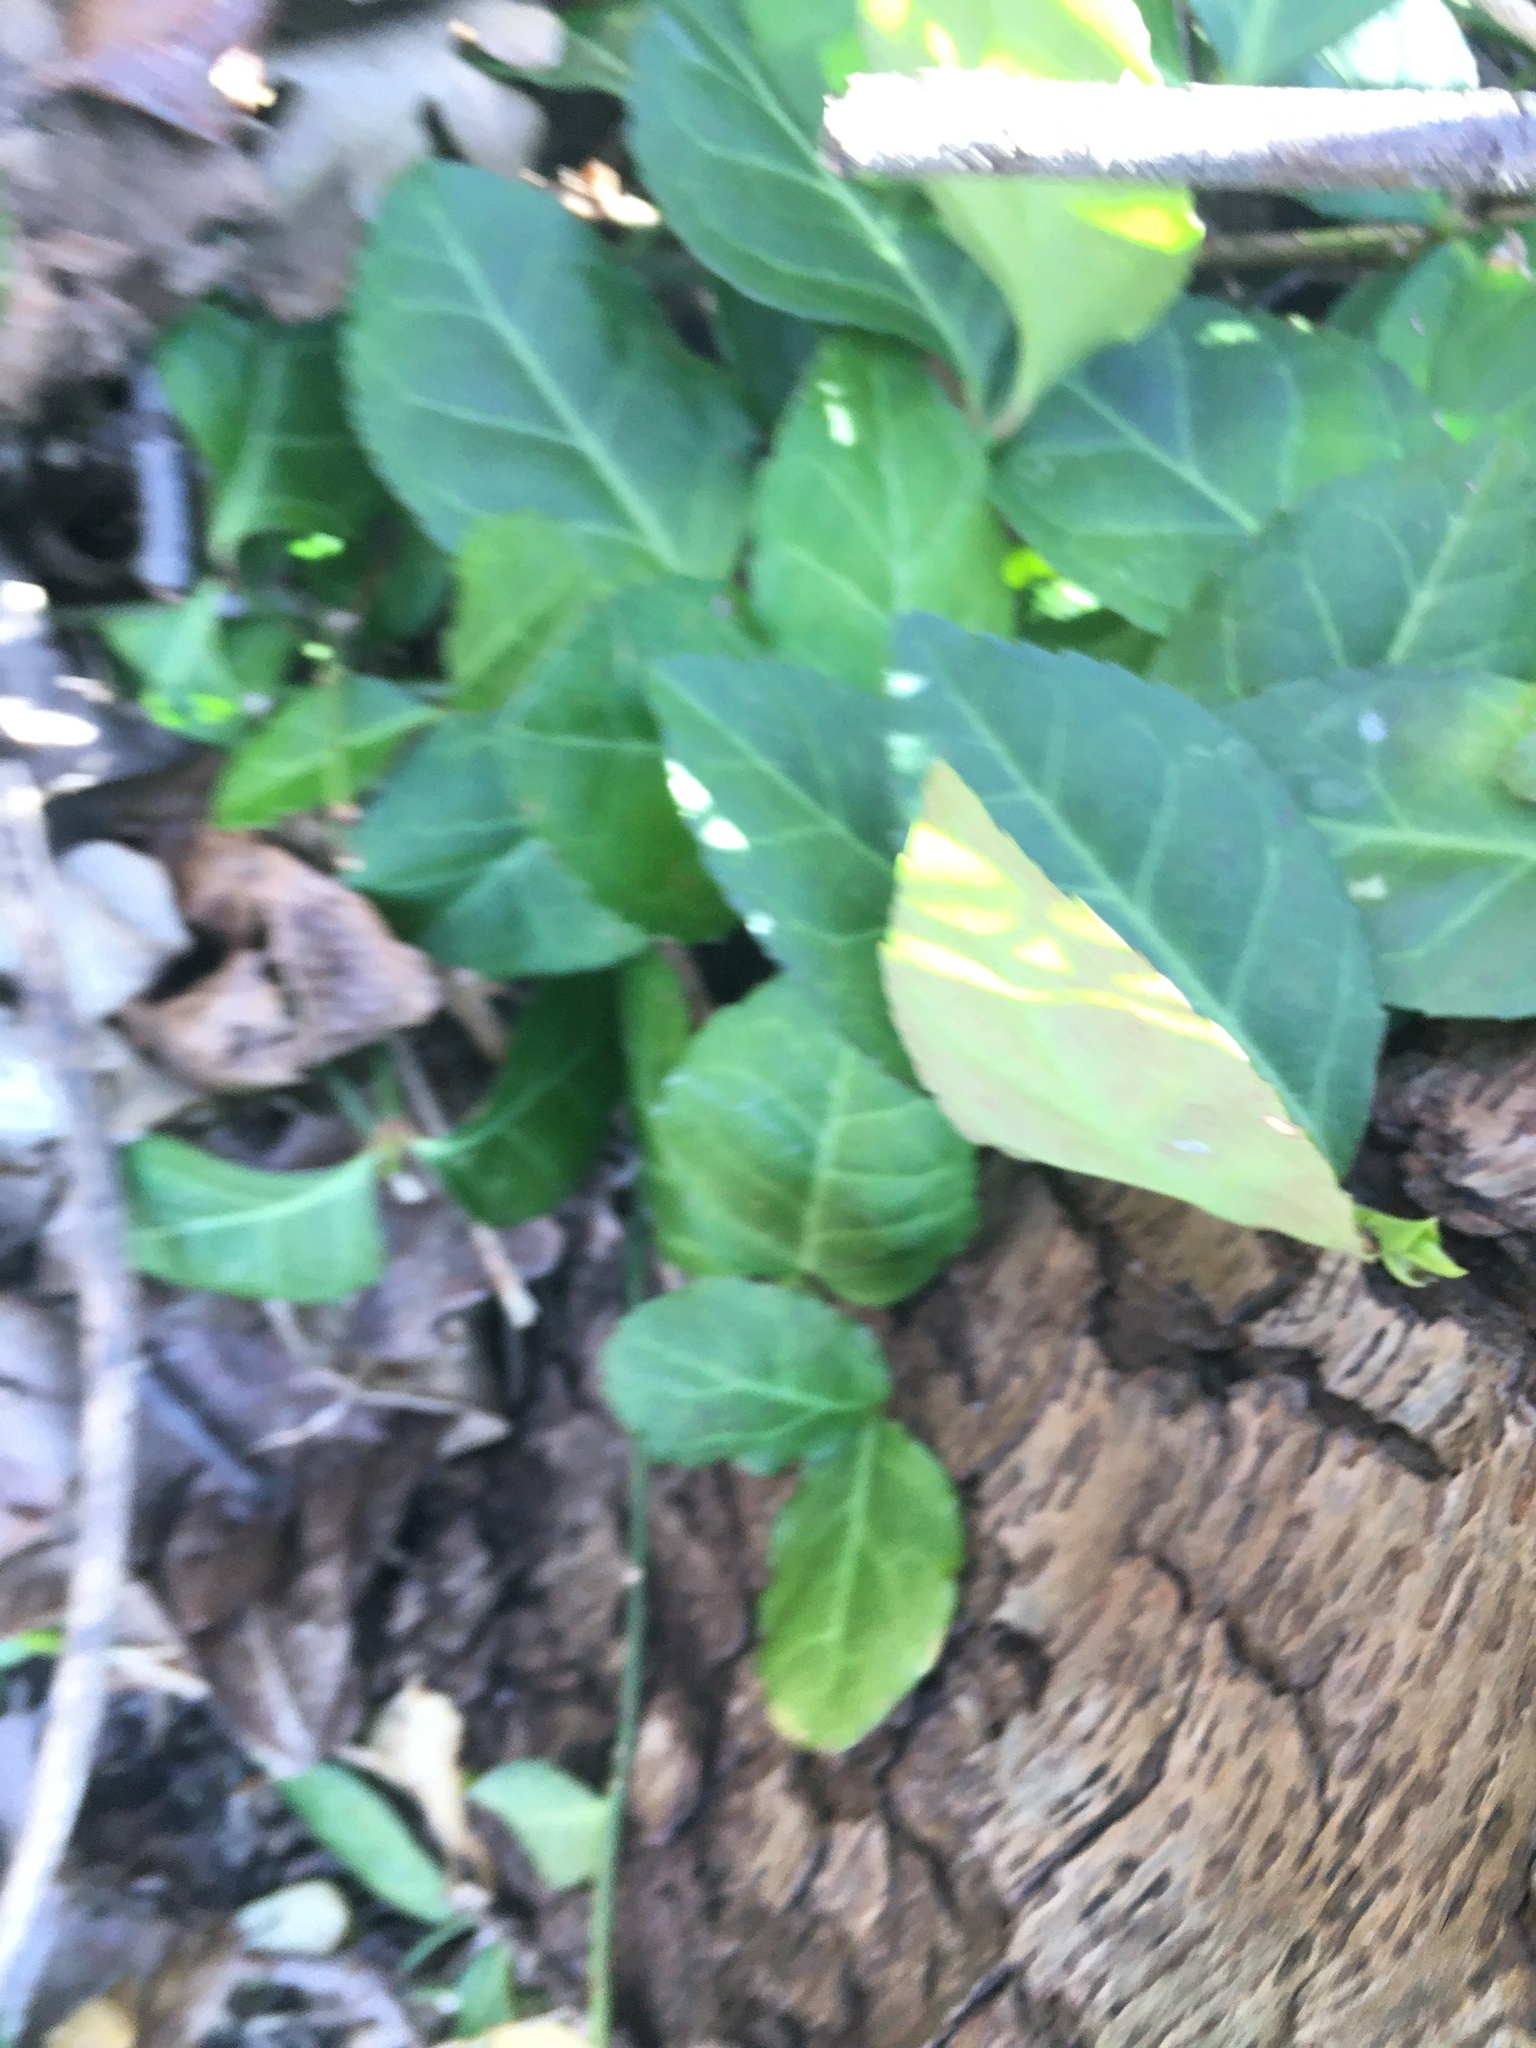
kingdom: Plantae
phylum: Tracheophyta
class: Magnoliopsida
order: Celastrales
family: Celastraceae
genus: Euonymus
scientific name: Euonymus fortunei
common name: Climbing euonymus
